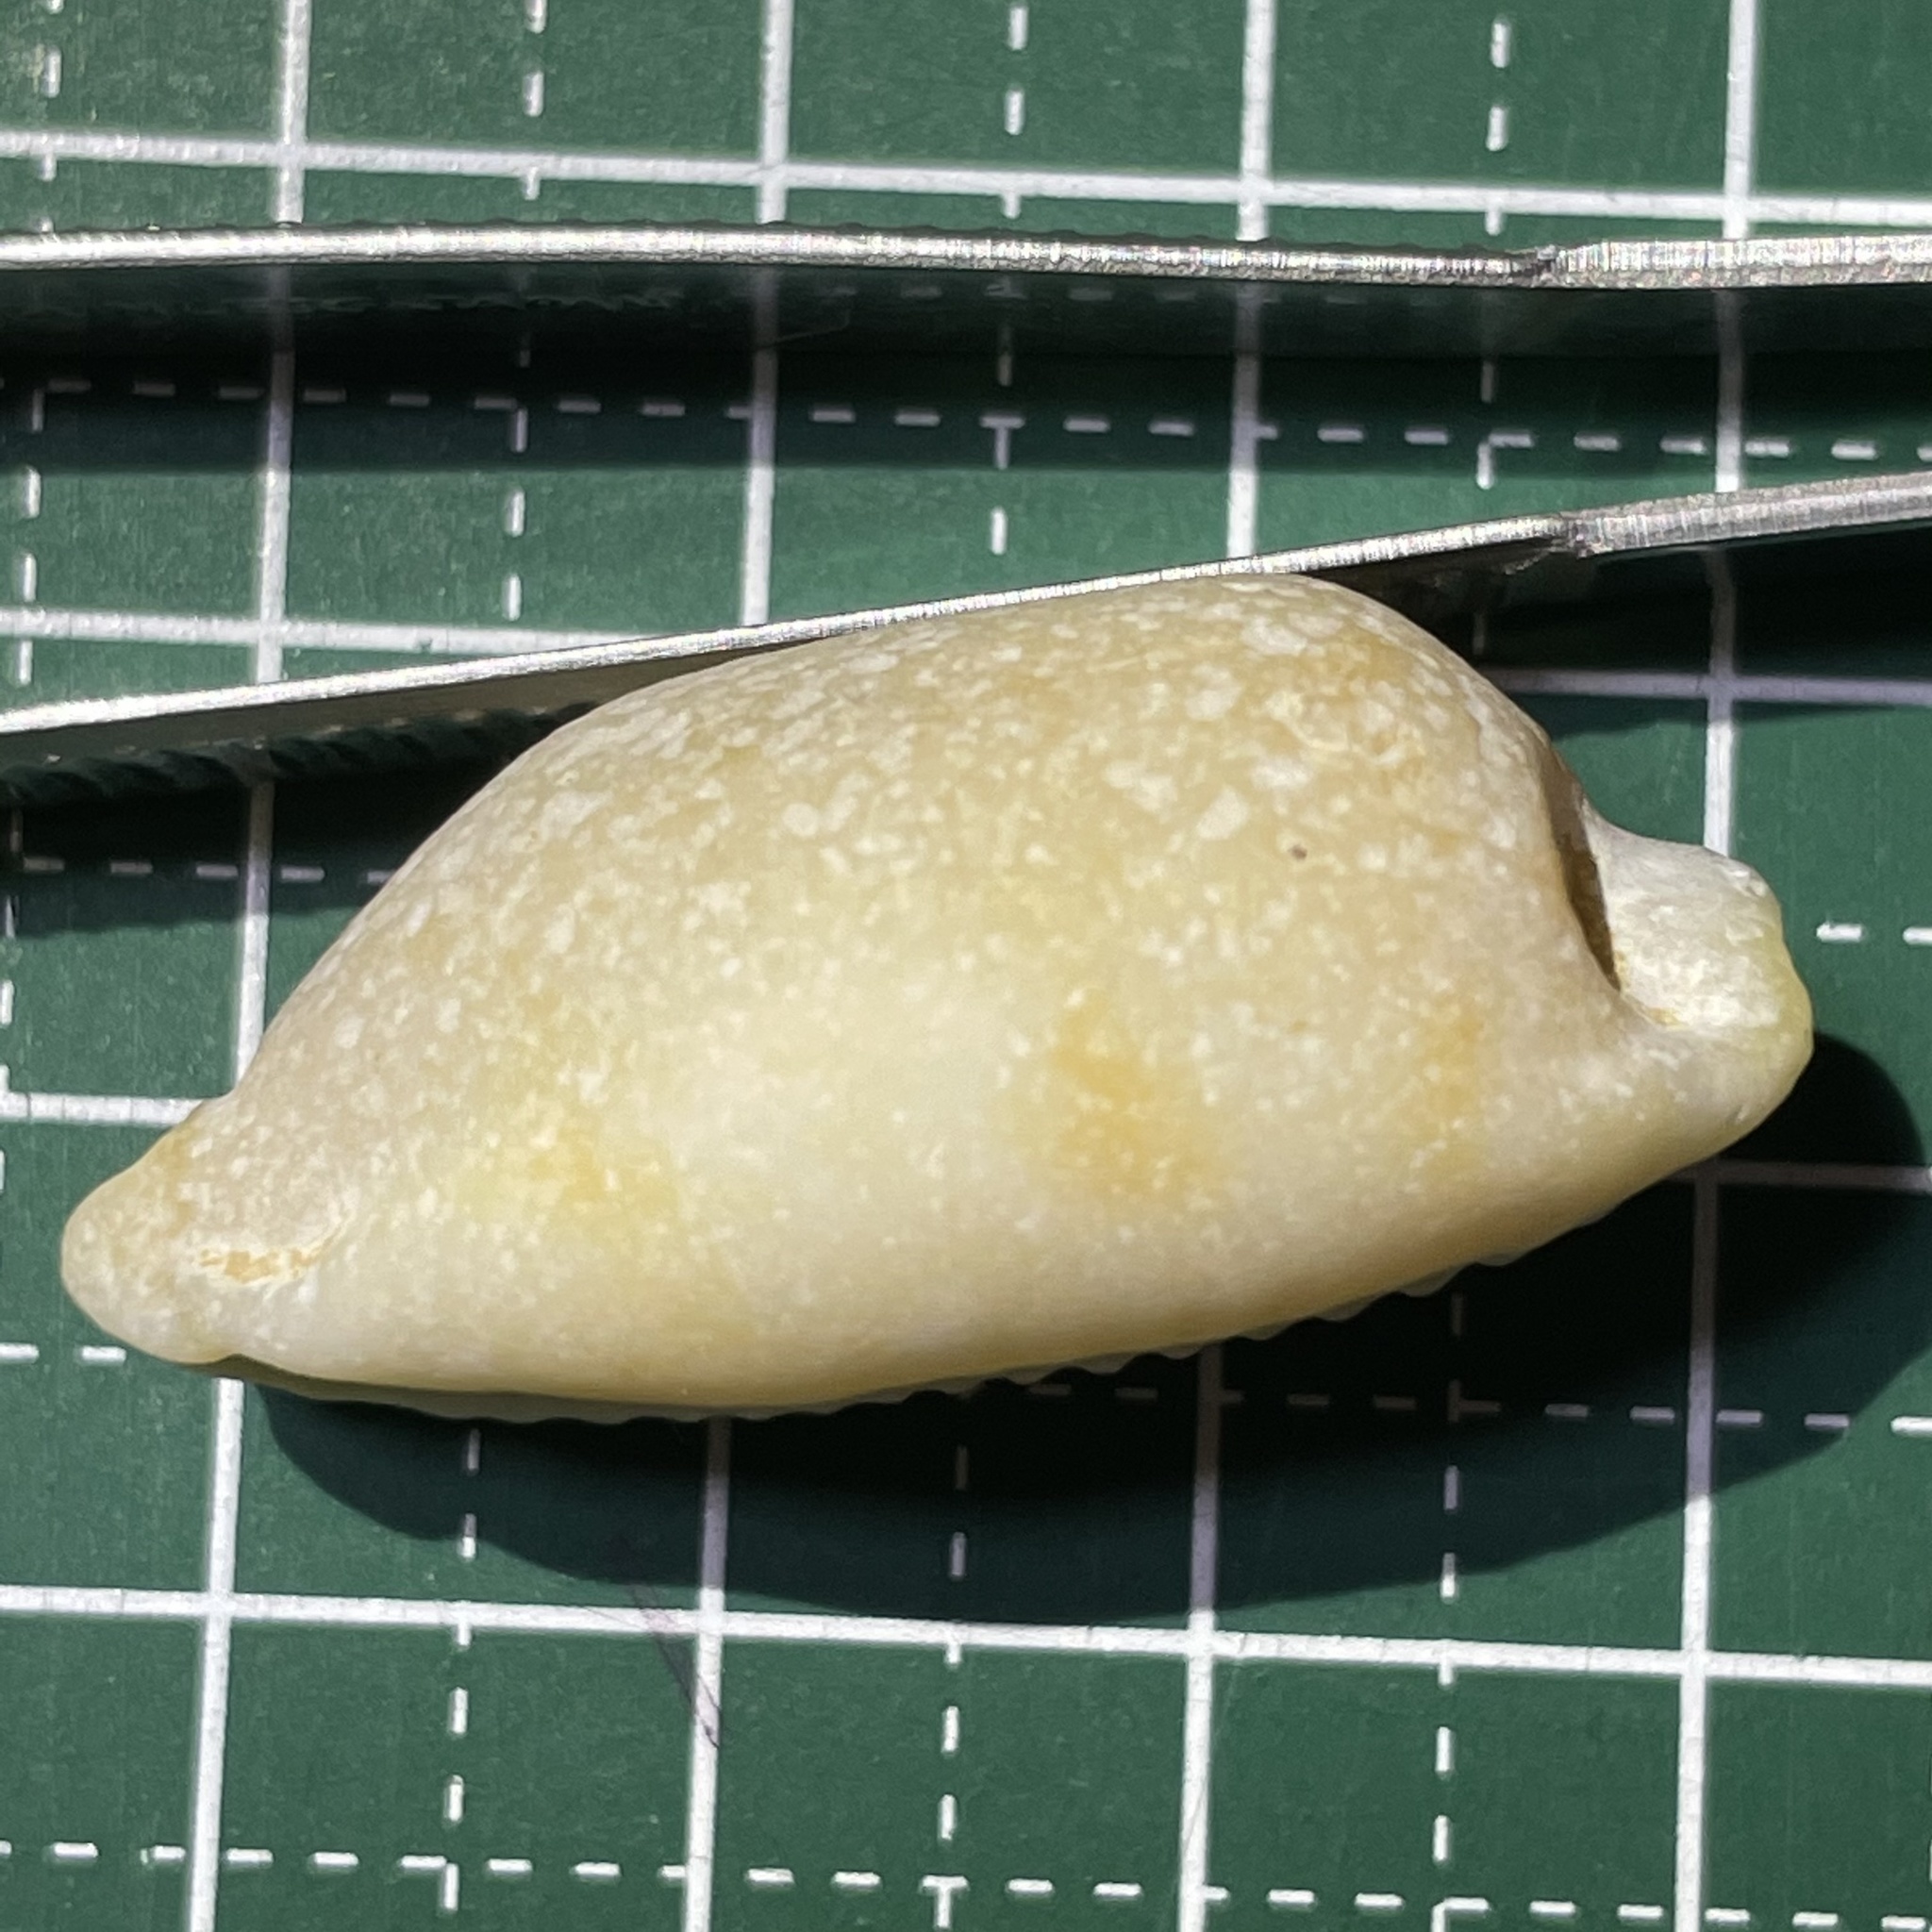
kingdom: Animalia
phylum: Mollusca
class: Gastropoda
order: Littorinimorpha
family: Cypraeidae
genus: Bistolida
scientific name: Bistolida stolida
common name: Stolid cowrie
